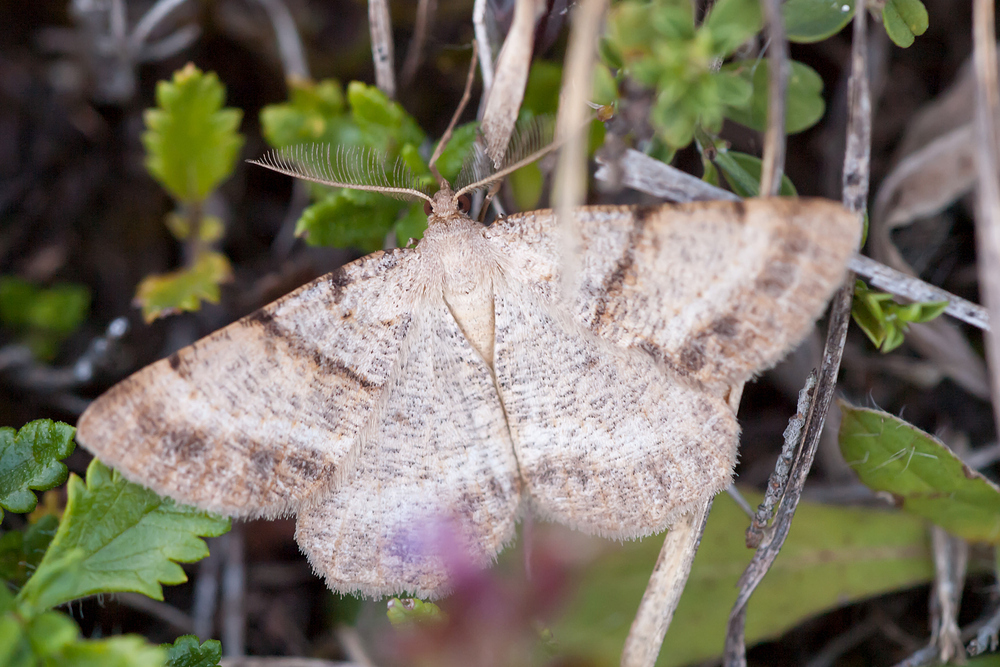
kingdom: Animalia
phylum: Arthropoda
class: Insecta
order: Lepidoptera
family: Geometridae
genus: Selidosema
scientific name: Selidosema brunnearia
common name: Bordered grey
